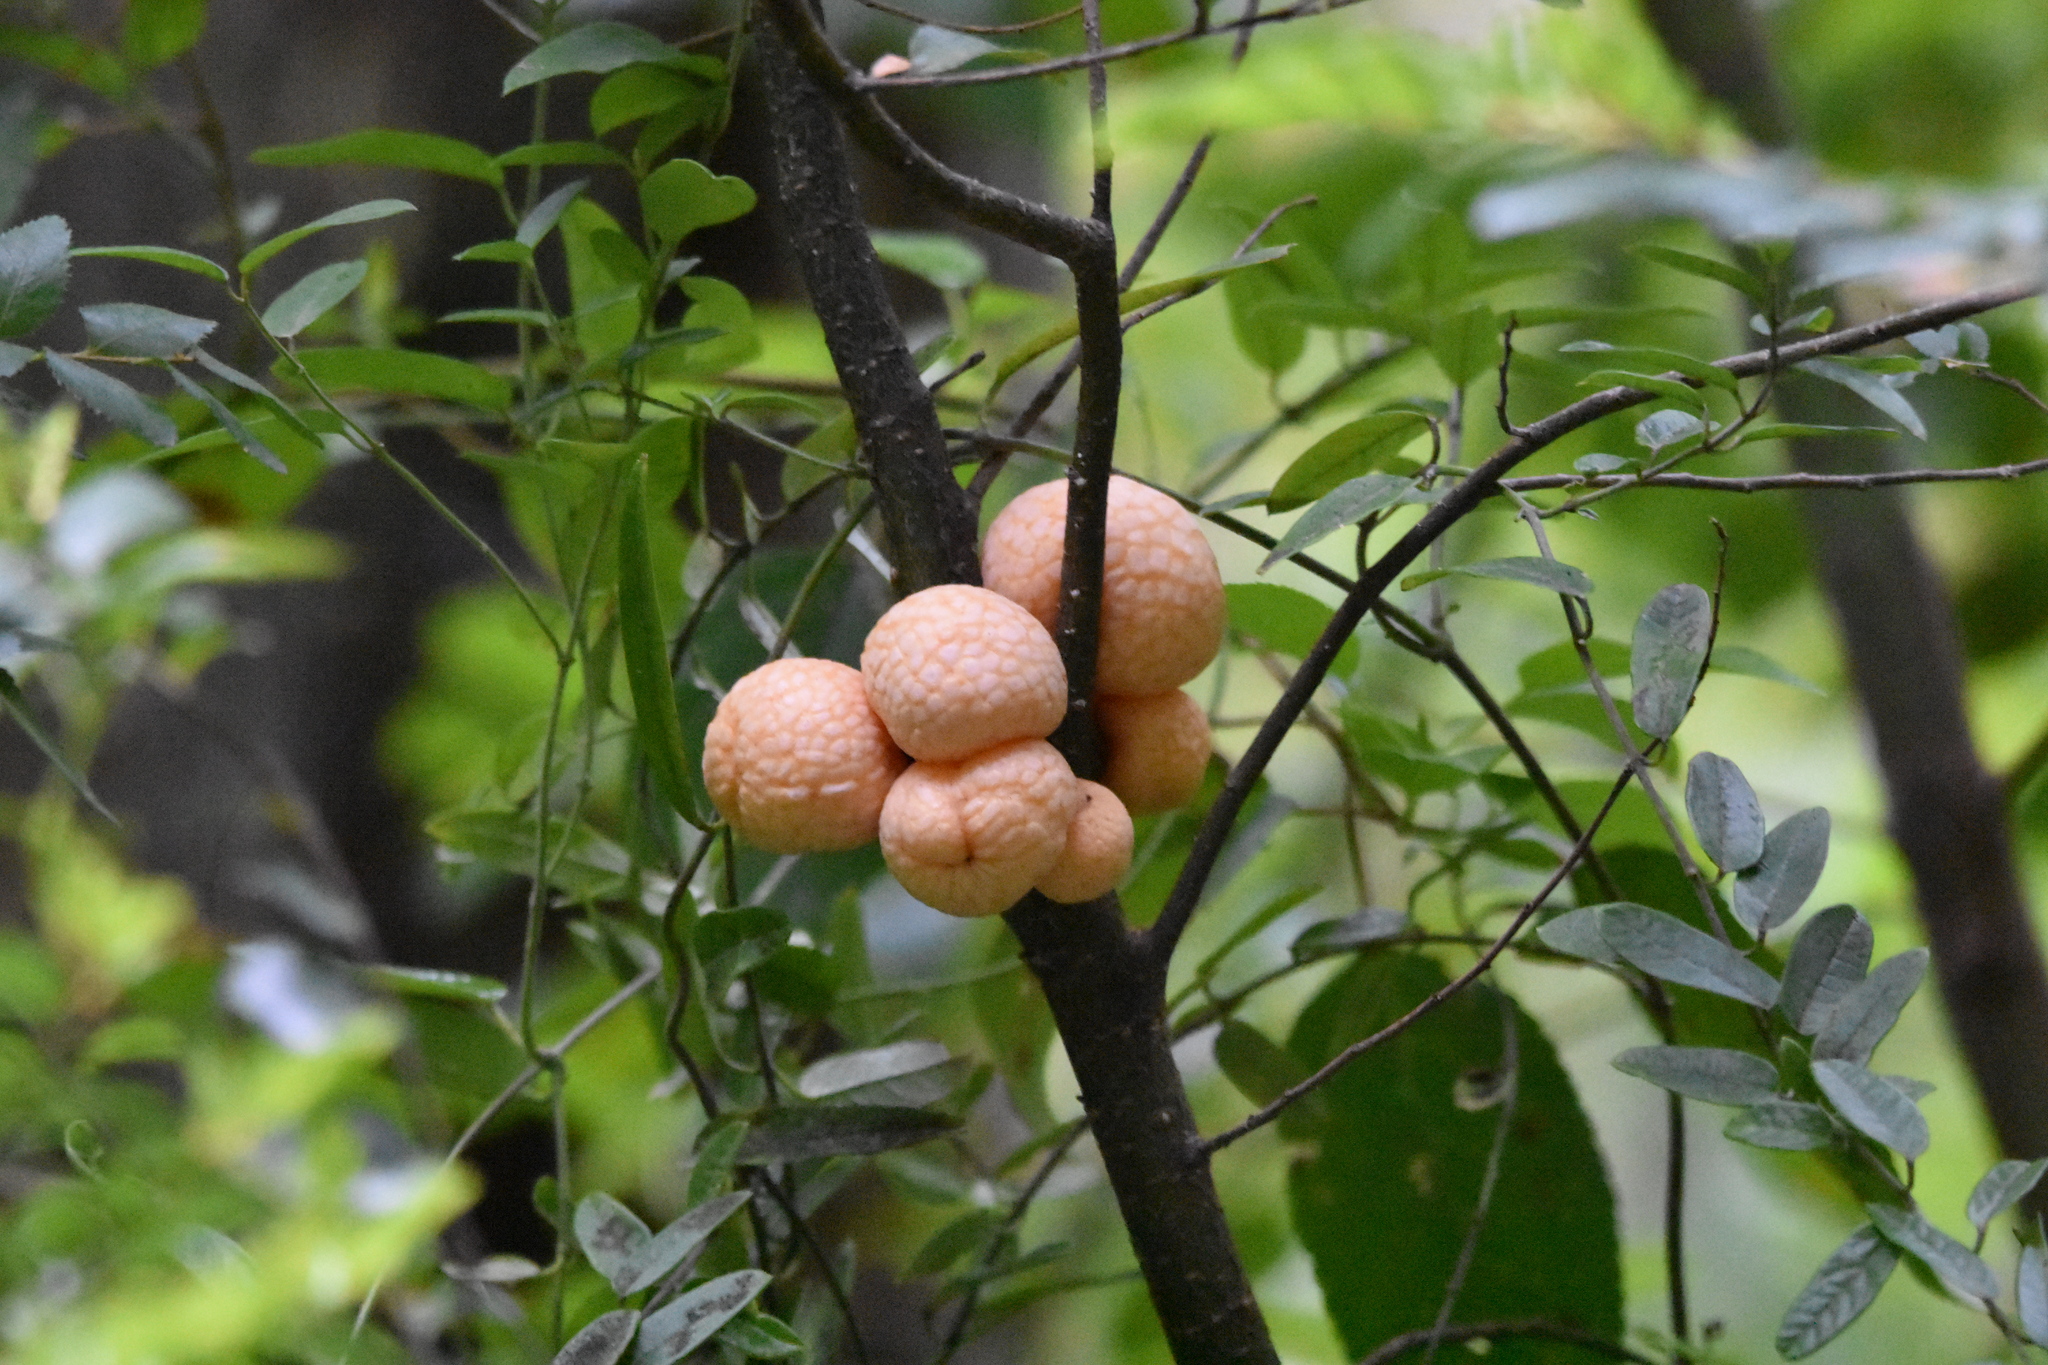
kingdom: Fungi
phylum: Ascomycota
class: Leotiomycetes
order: Cyttariales
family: Cyttariaceae
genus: Cyttaria
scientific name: Cyttaria hariotii
